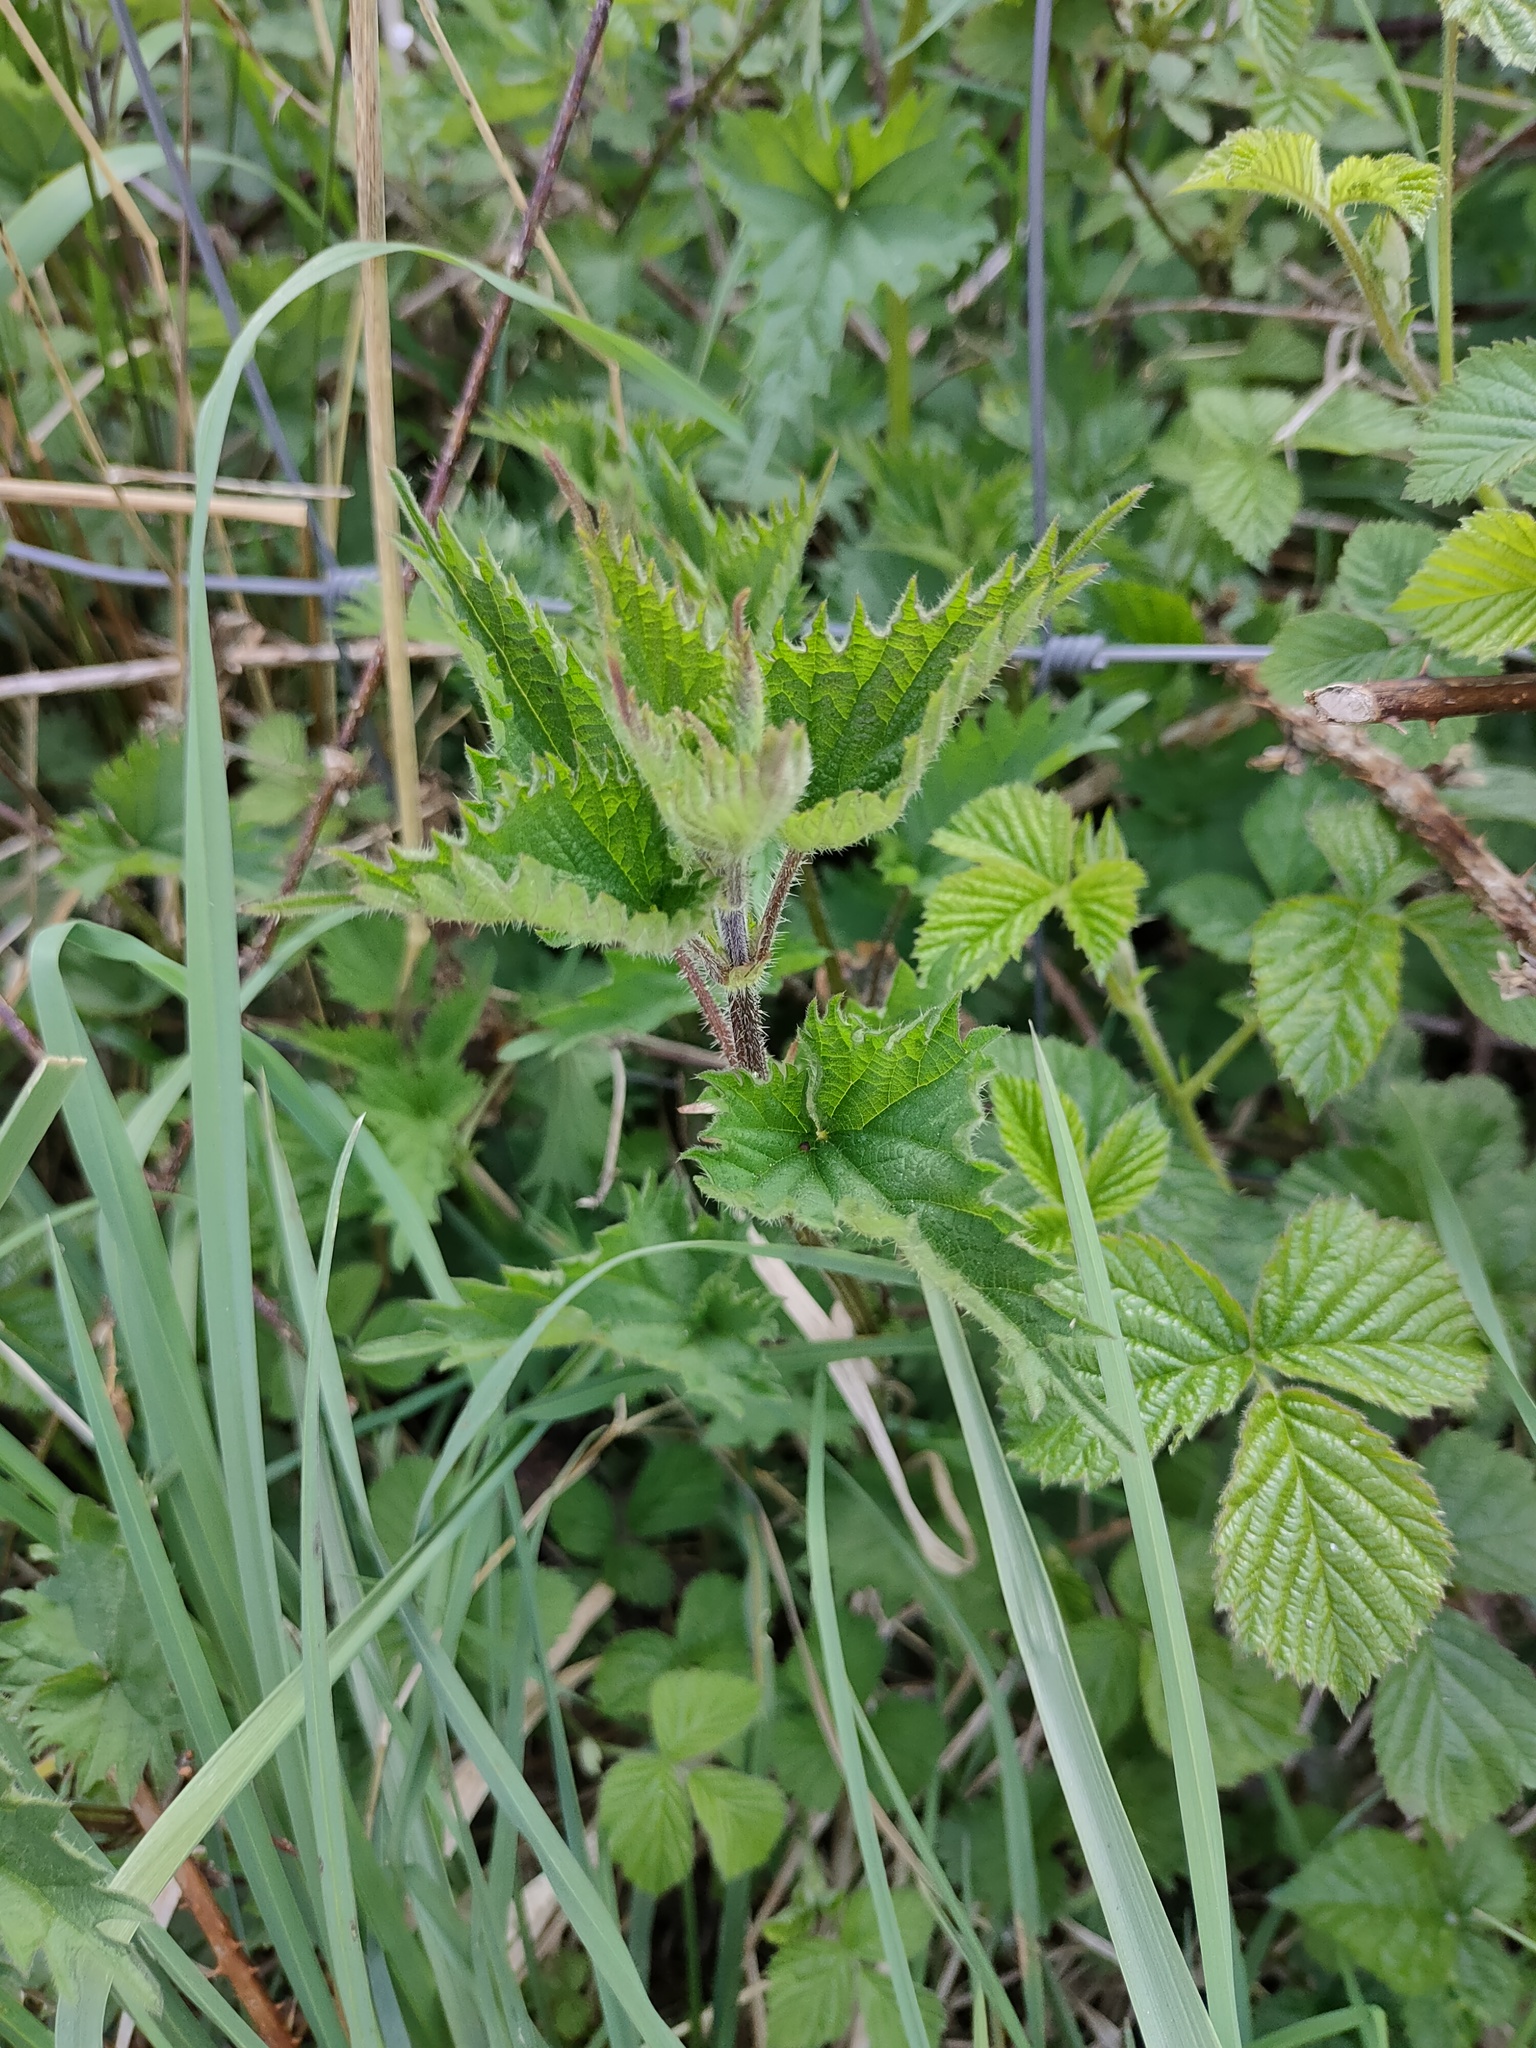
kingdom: Plantae
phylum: Tracheophyta
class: Magnoliopsida
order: Rosales
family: Urticaceae
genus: Urtica
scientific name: Urtica dioica
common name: Common nettle
